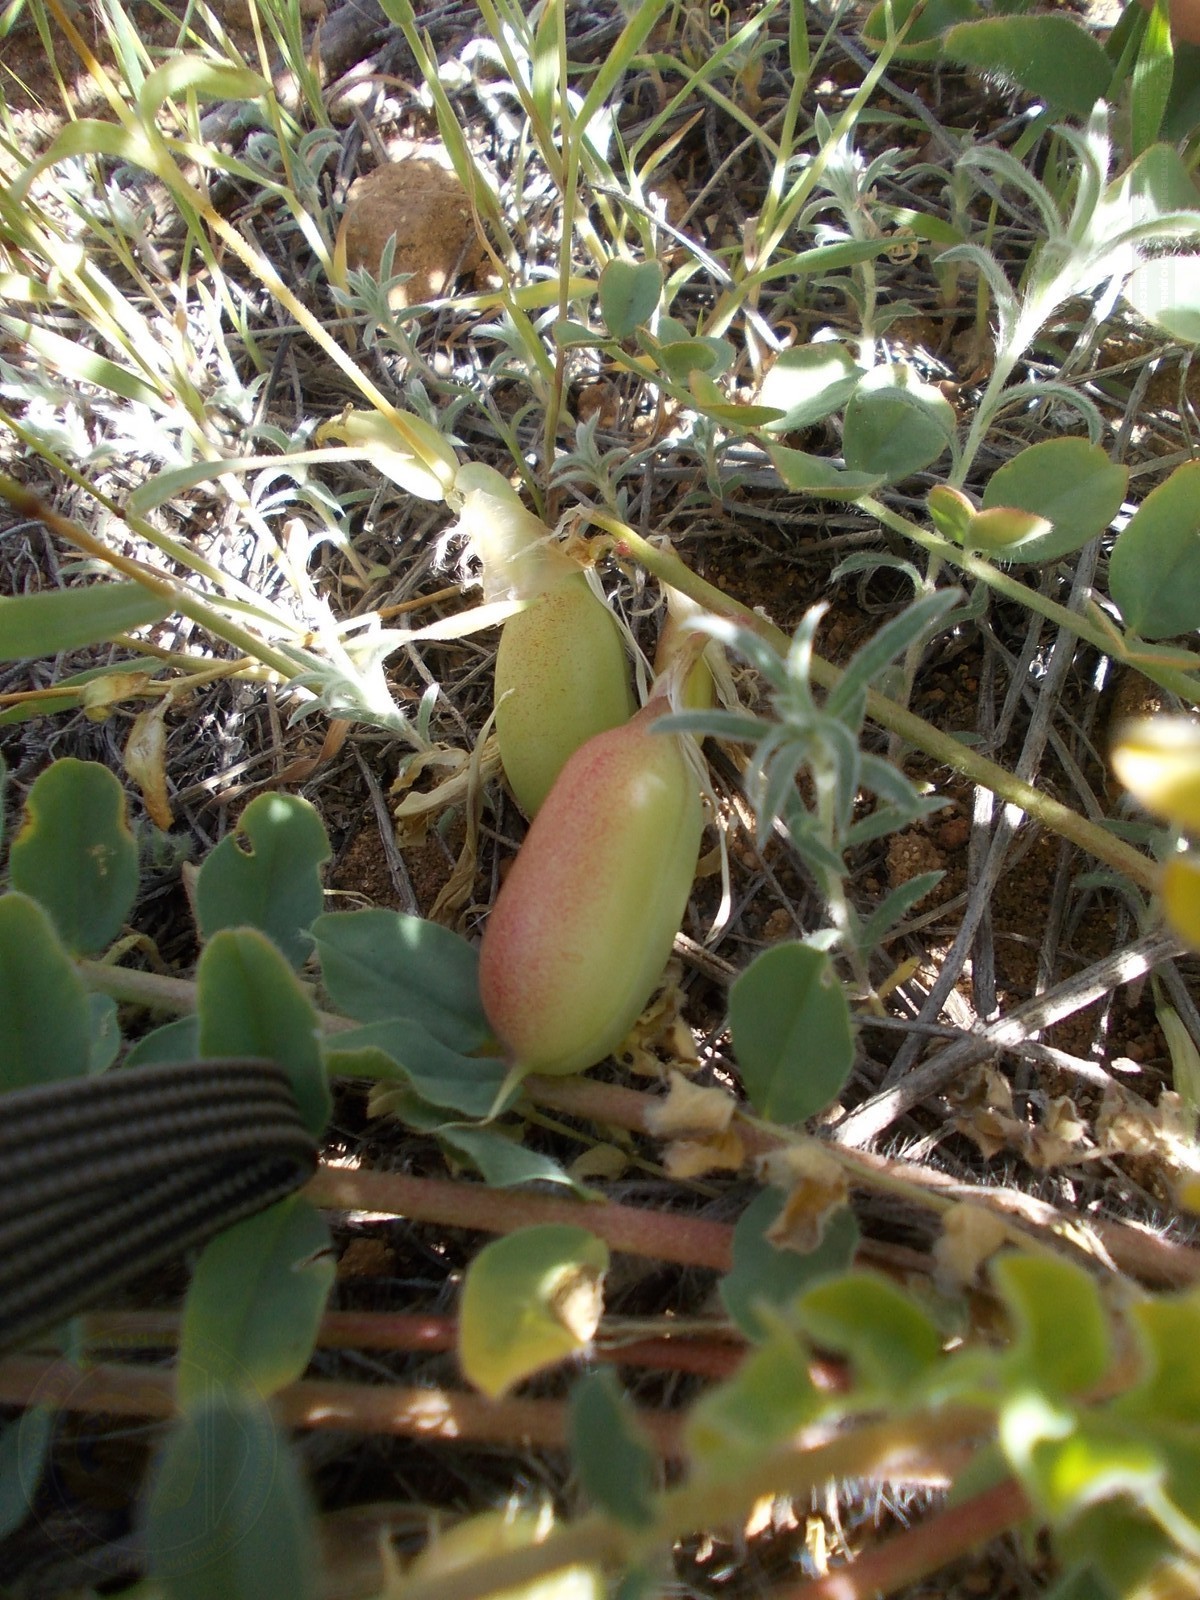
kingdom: Plantae
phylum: Tracheophyta
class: Magnoliopsida
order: Fabales
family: Fabaceae
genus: Astragalus
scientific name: Astragalus longipetalus
